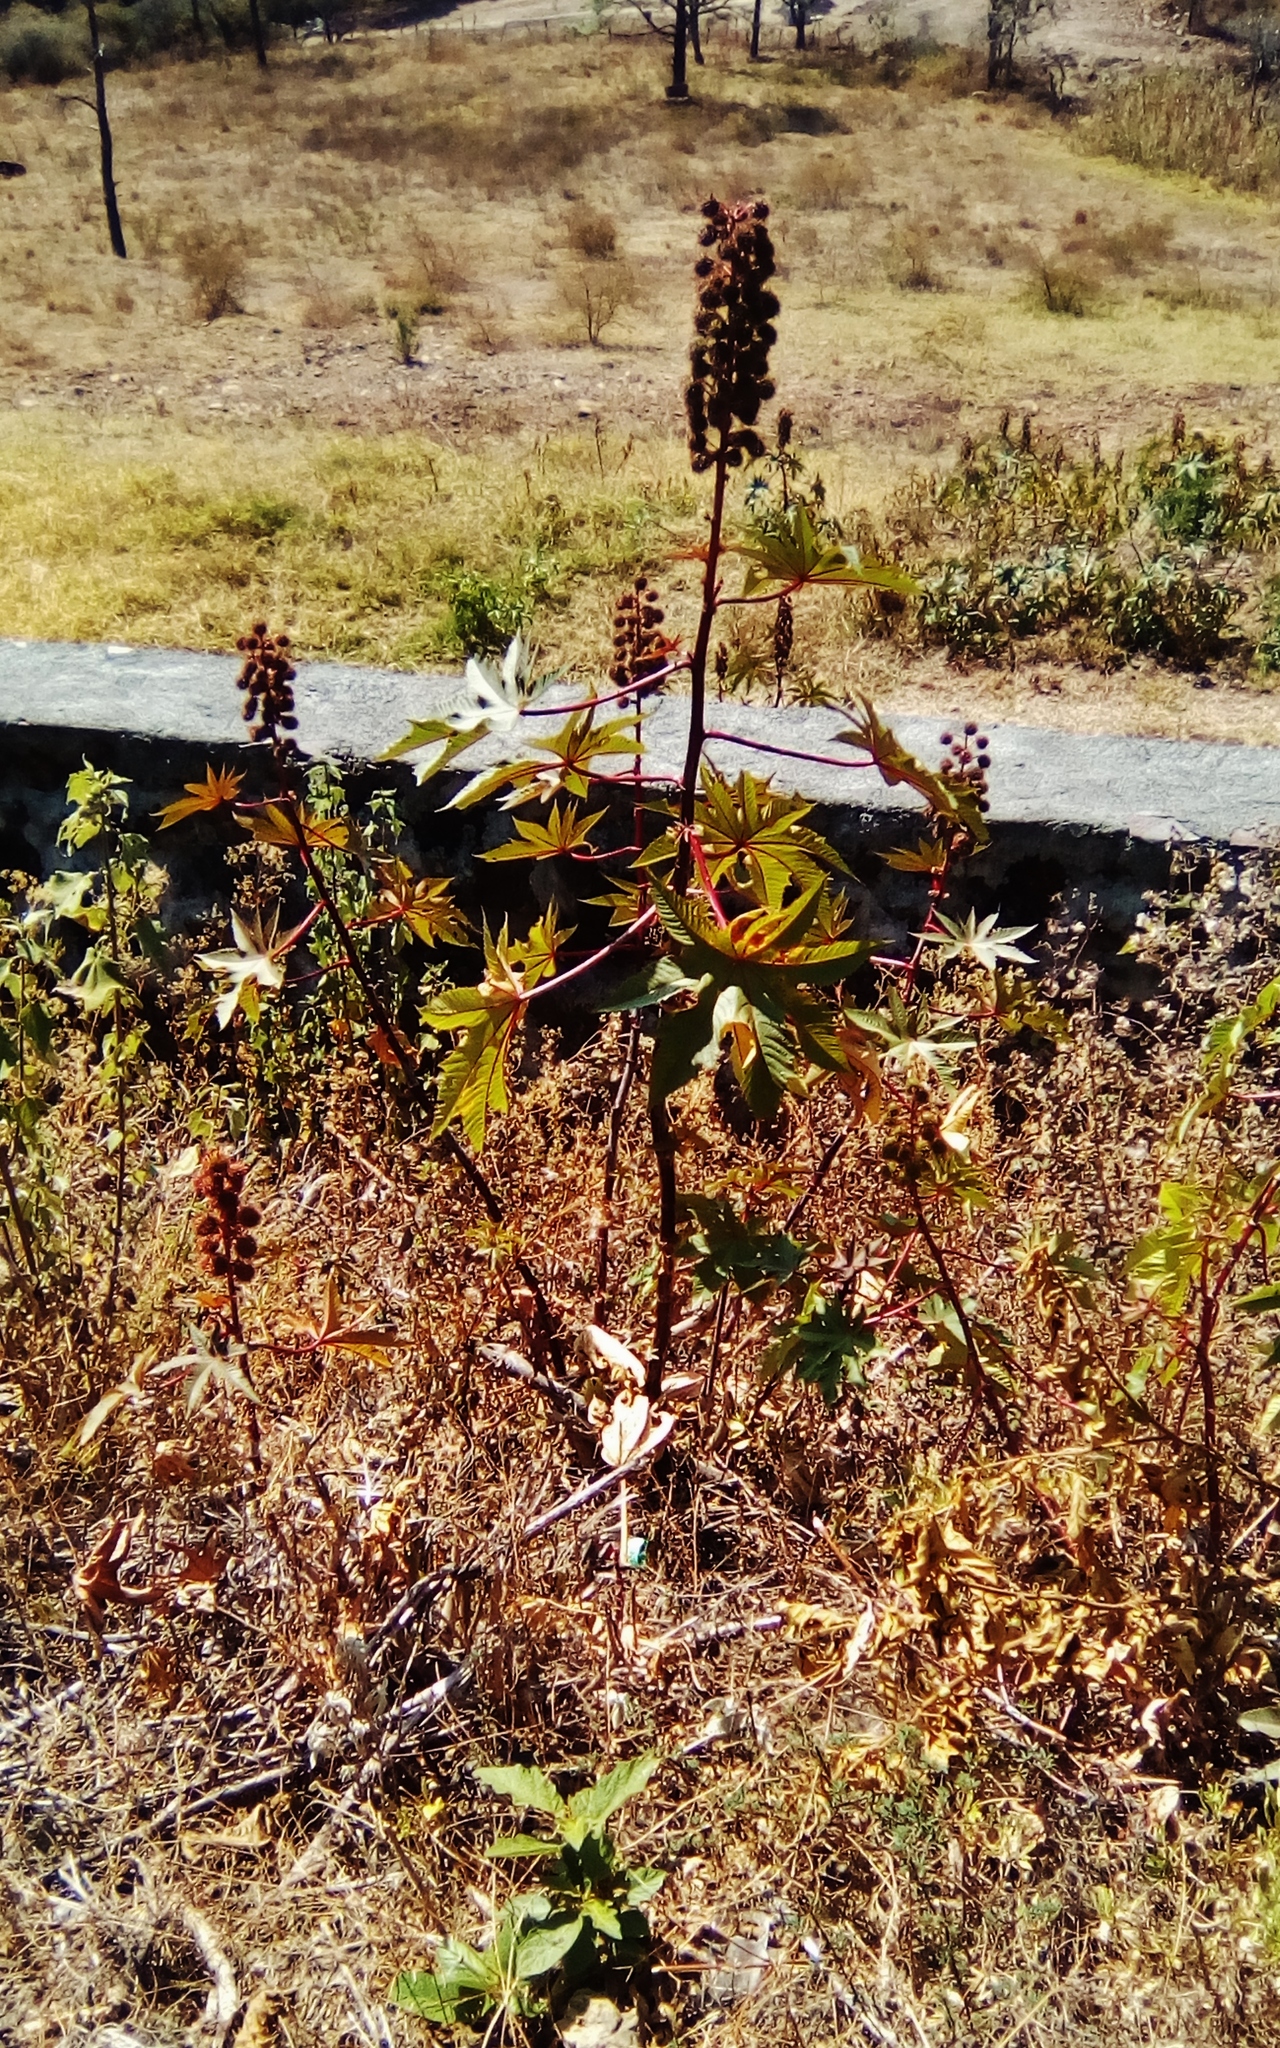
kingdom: Plantae
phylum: Tracheophyta
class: Magnoliopsida
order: Malpighiales
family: Euphorbiaceae
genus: Ricinus
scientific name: Ricinus communis
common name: Castor-oil-plant
